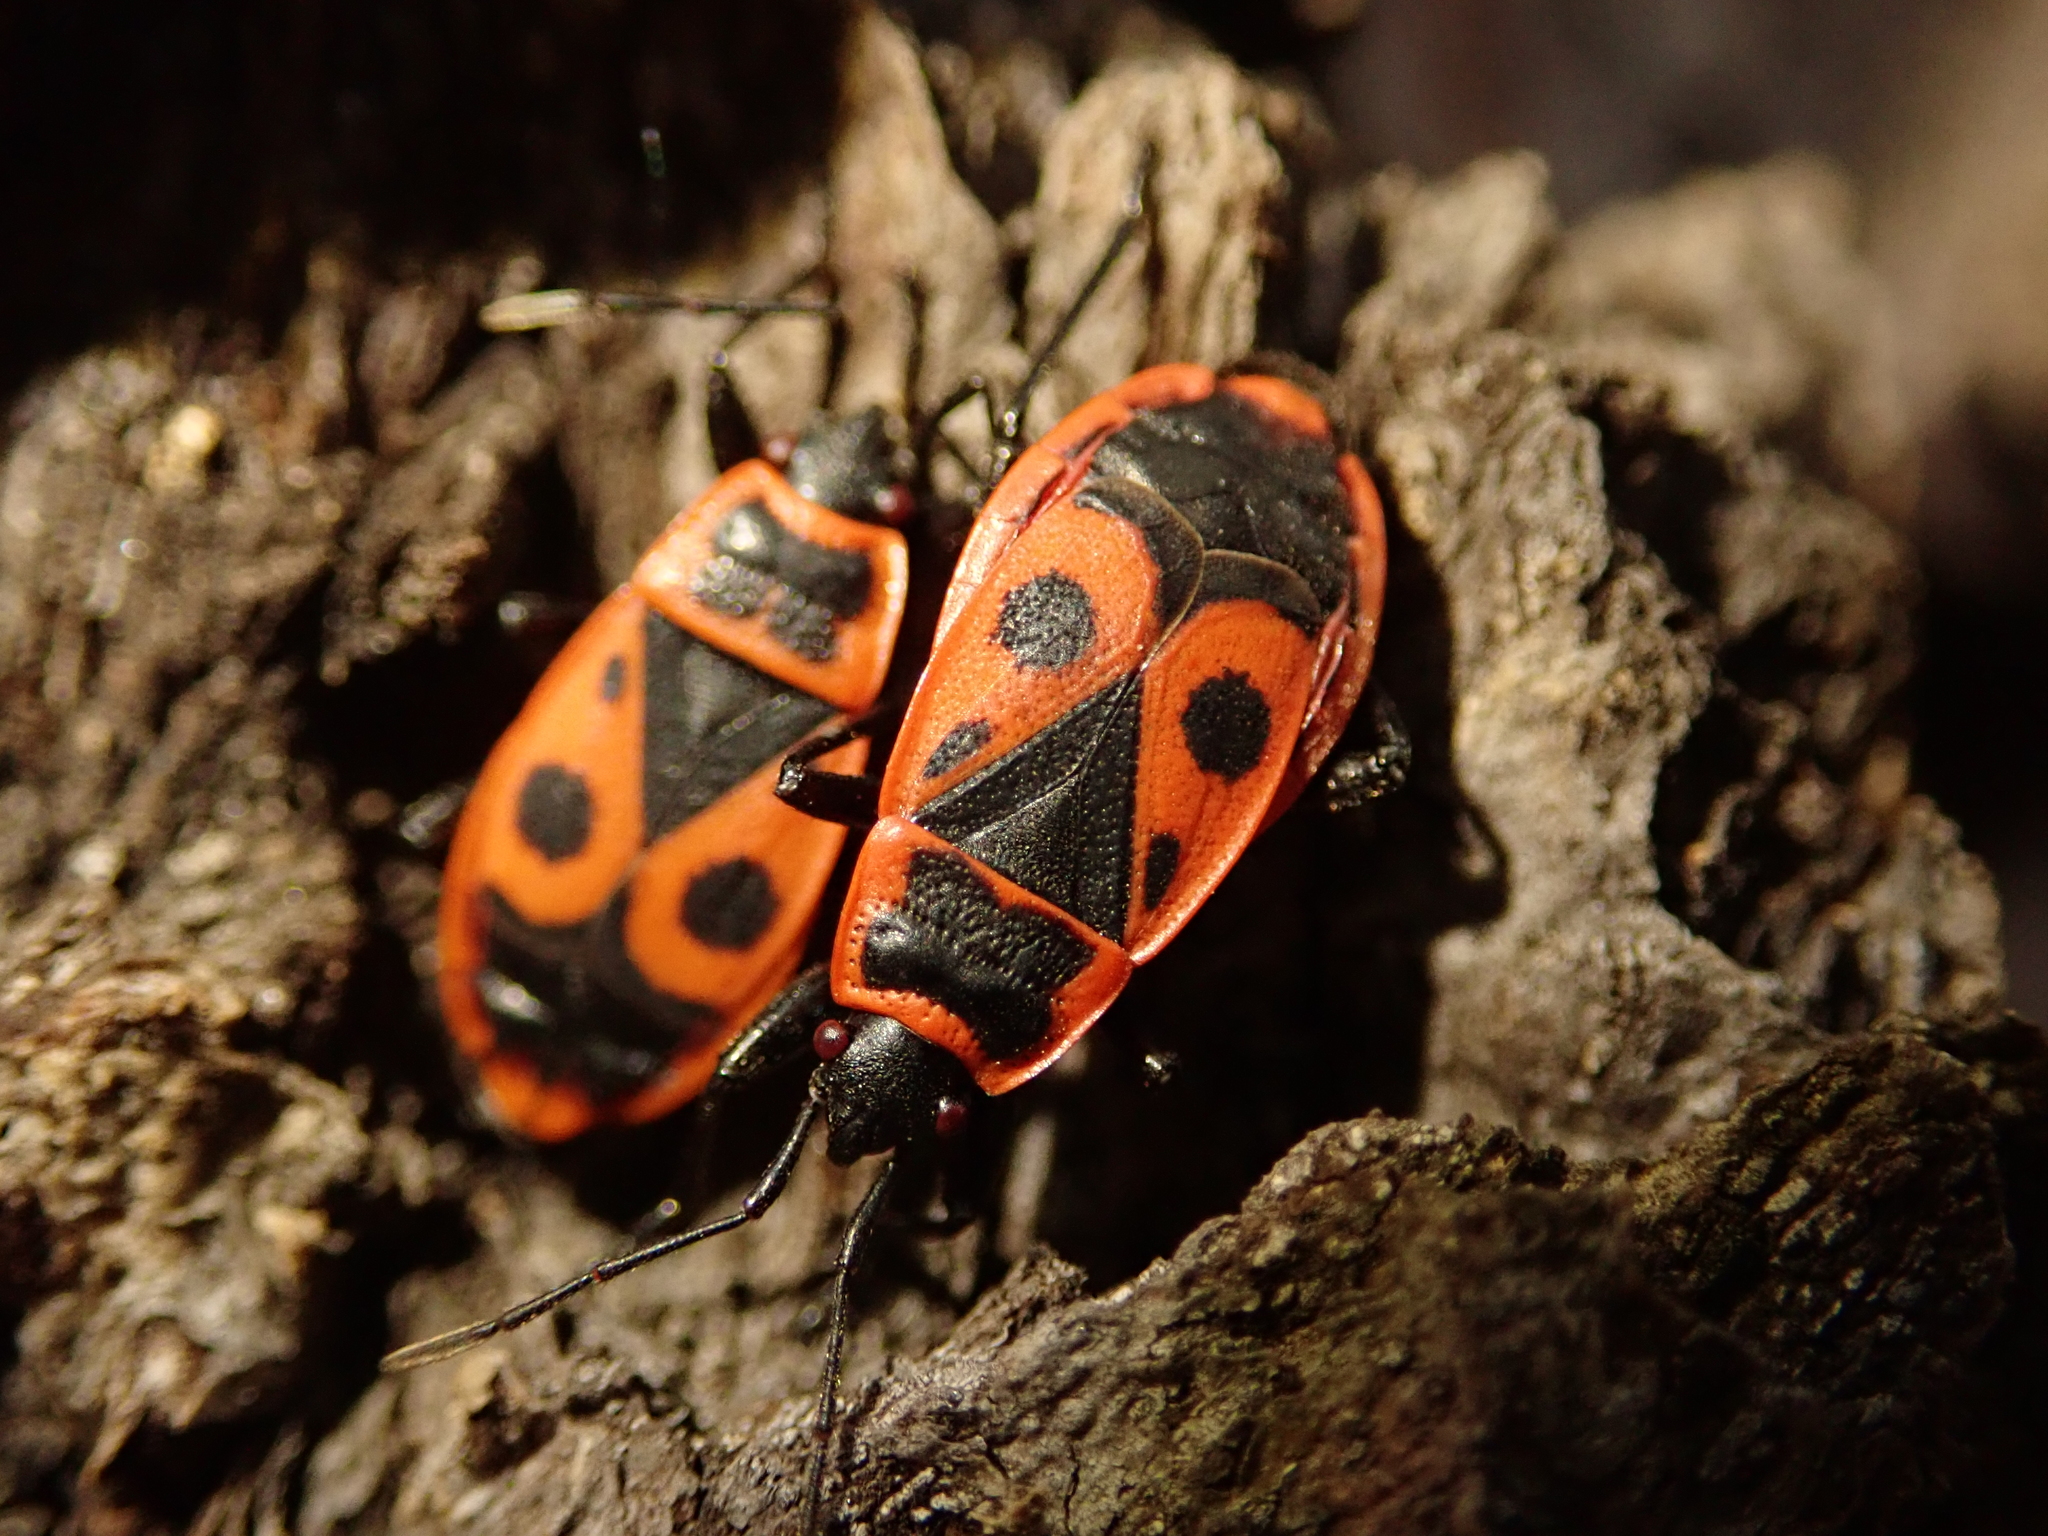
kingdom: Animalia
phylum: Arthropoda
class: Insecta
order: Hemiptera
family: Pyrrhocoridae
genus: Pyrrhocoris
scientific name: Pyrrhocoris apterus
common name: Firebug
